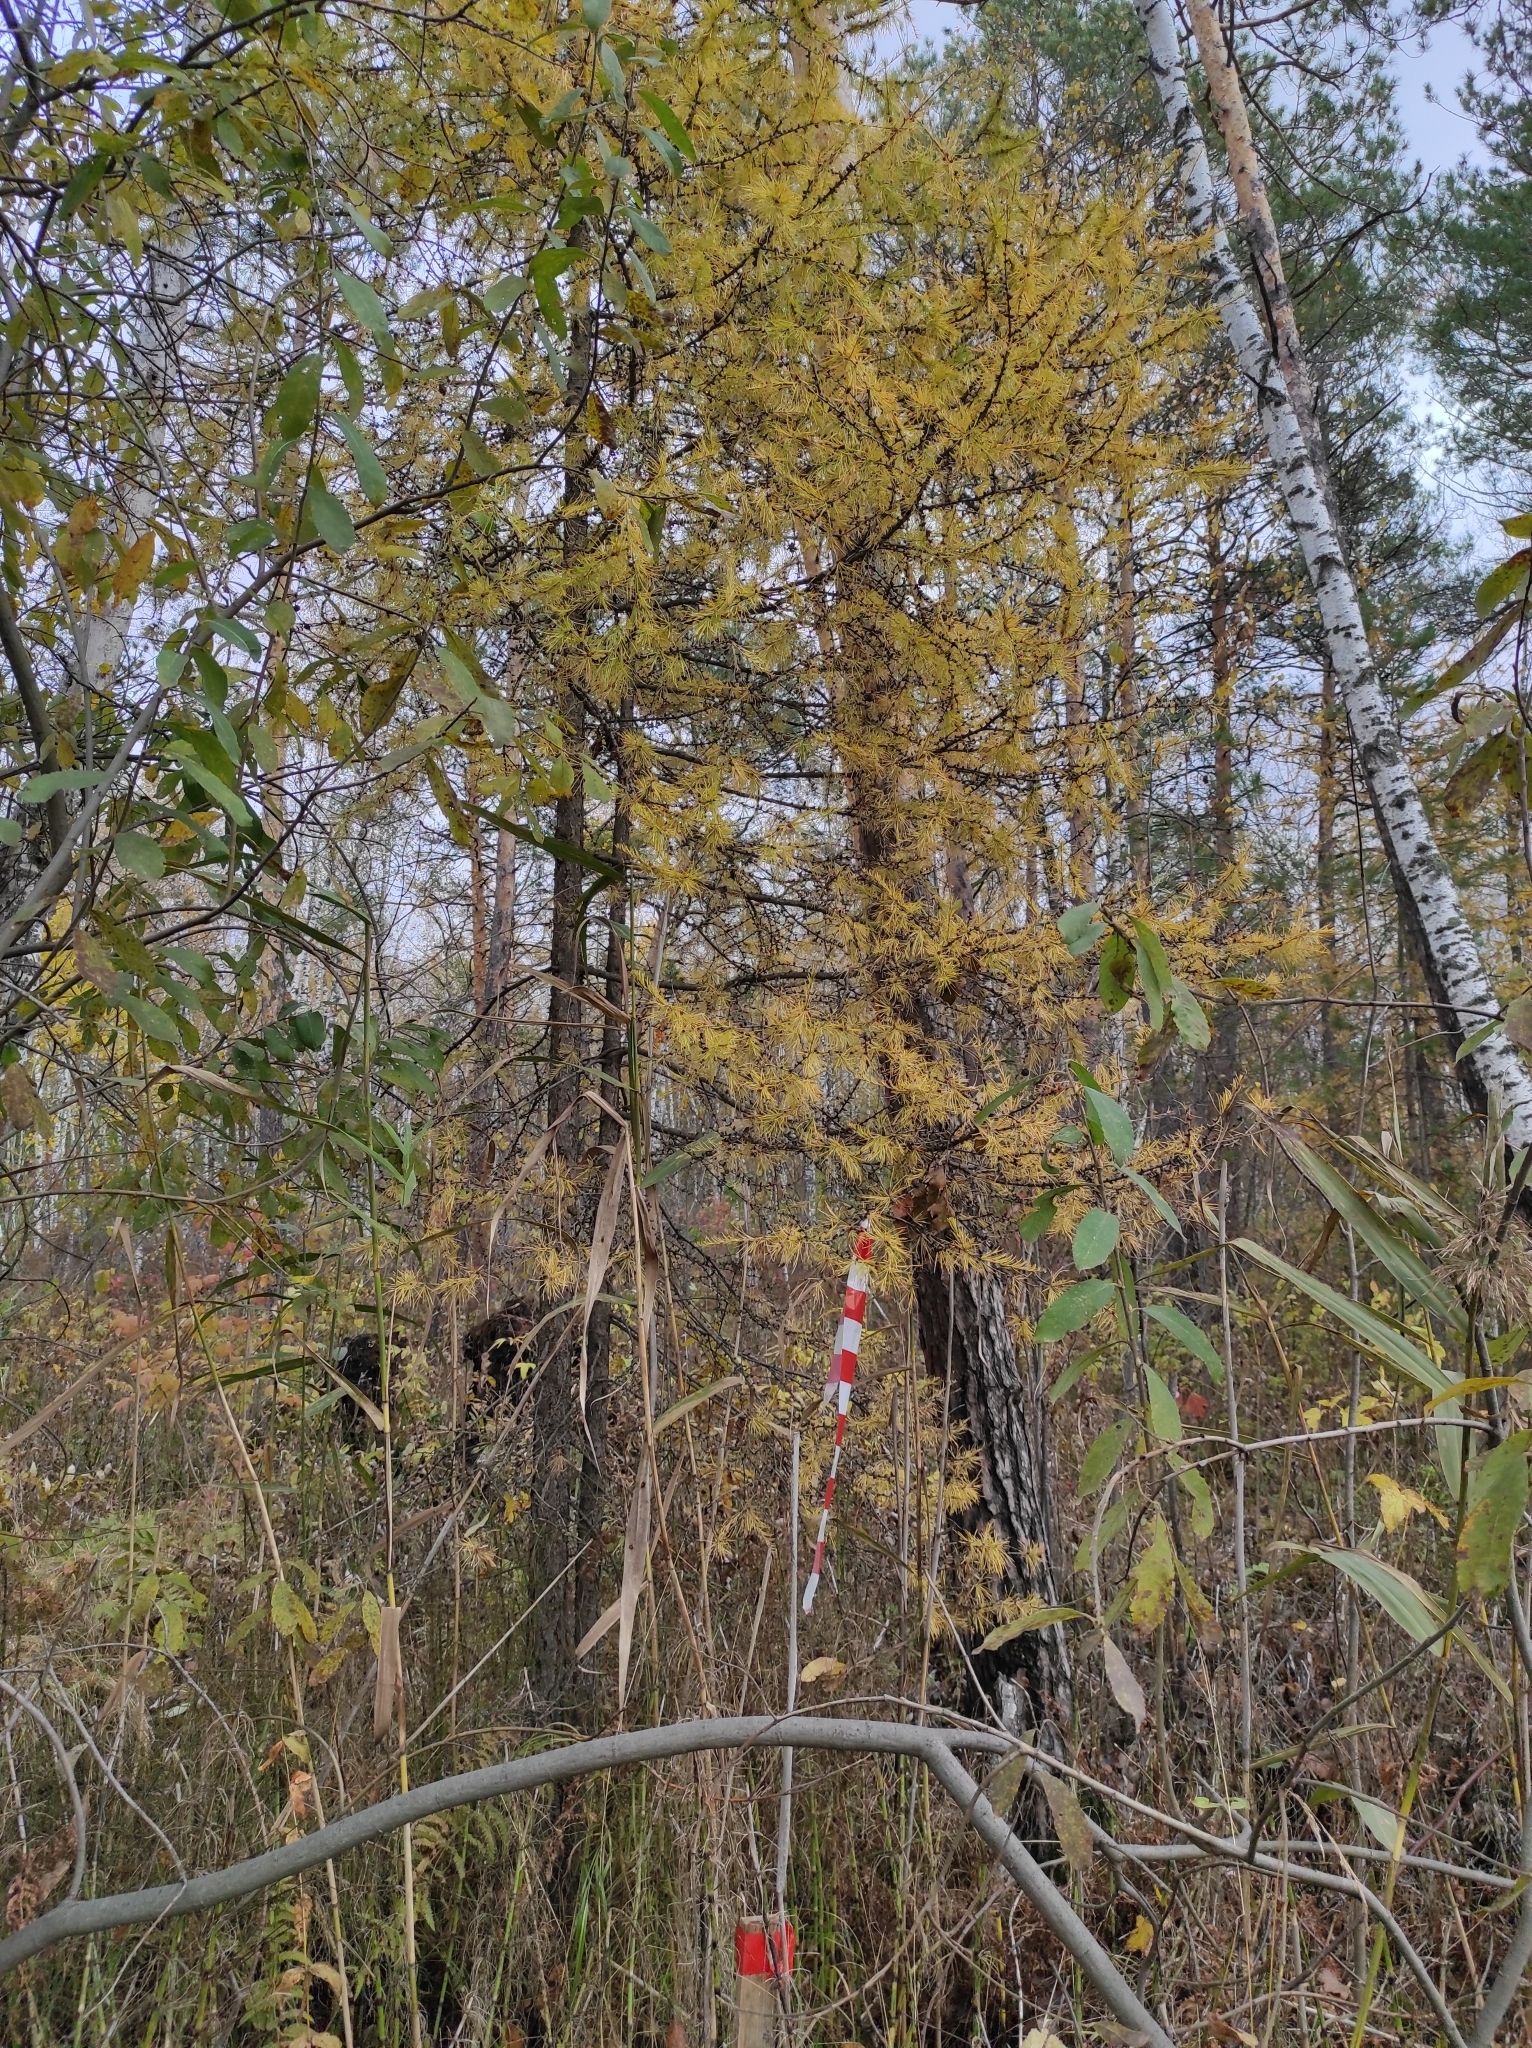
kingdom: Plantae
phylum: Tracheophyta
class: Pinopsida
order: Pinales
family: Pinaceae
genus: Larix
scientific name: Larix sibirica
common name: Siberian larch
